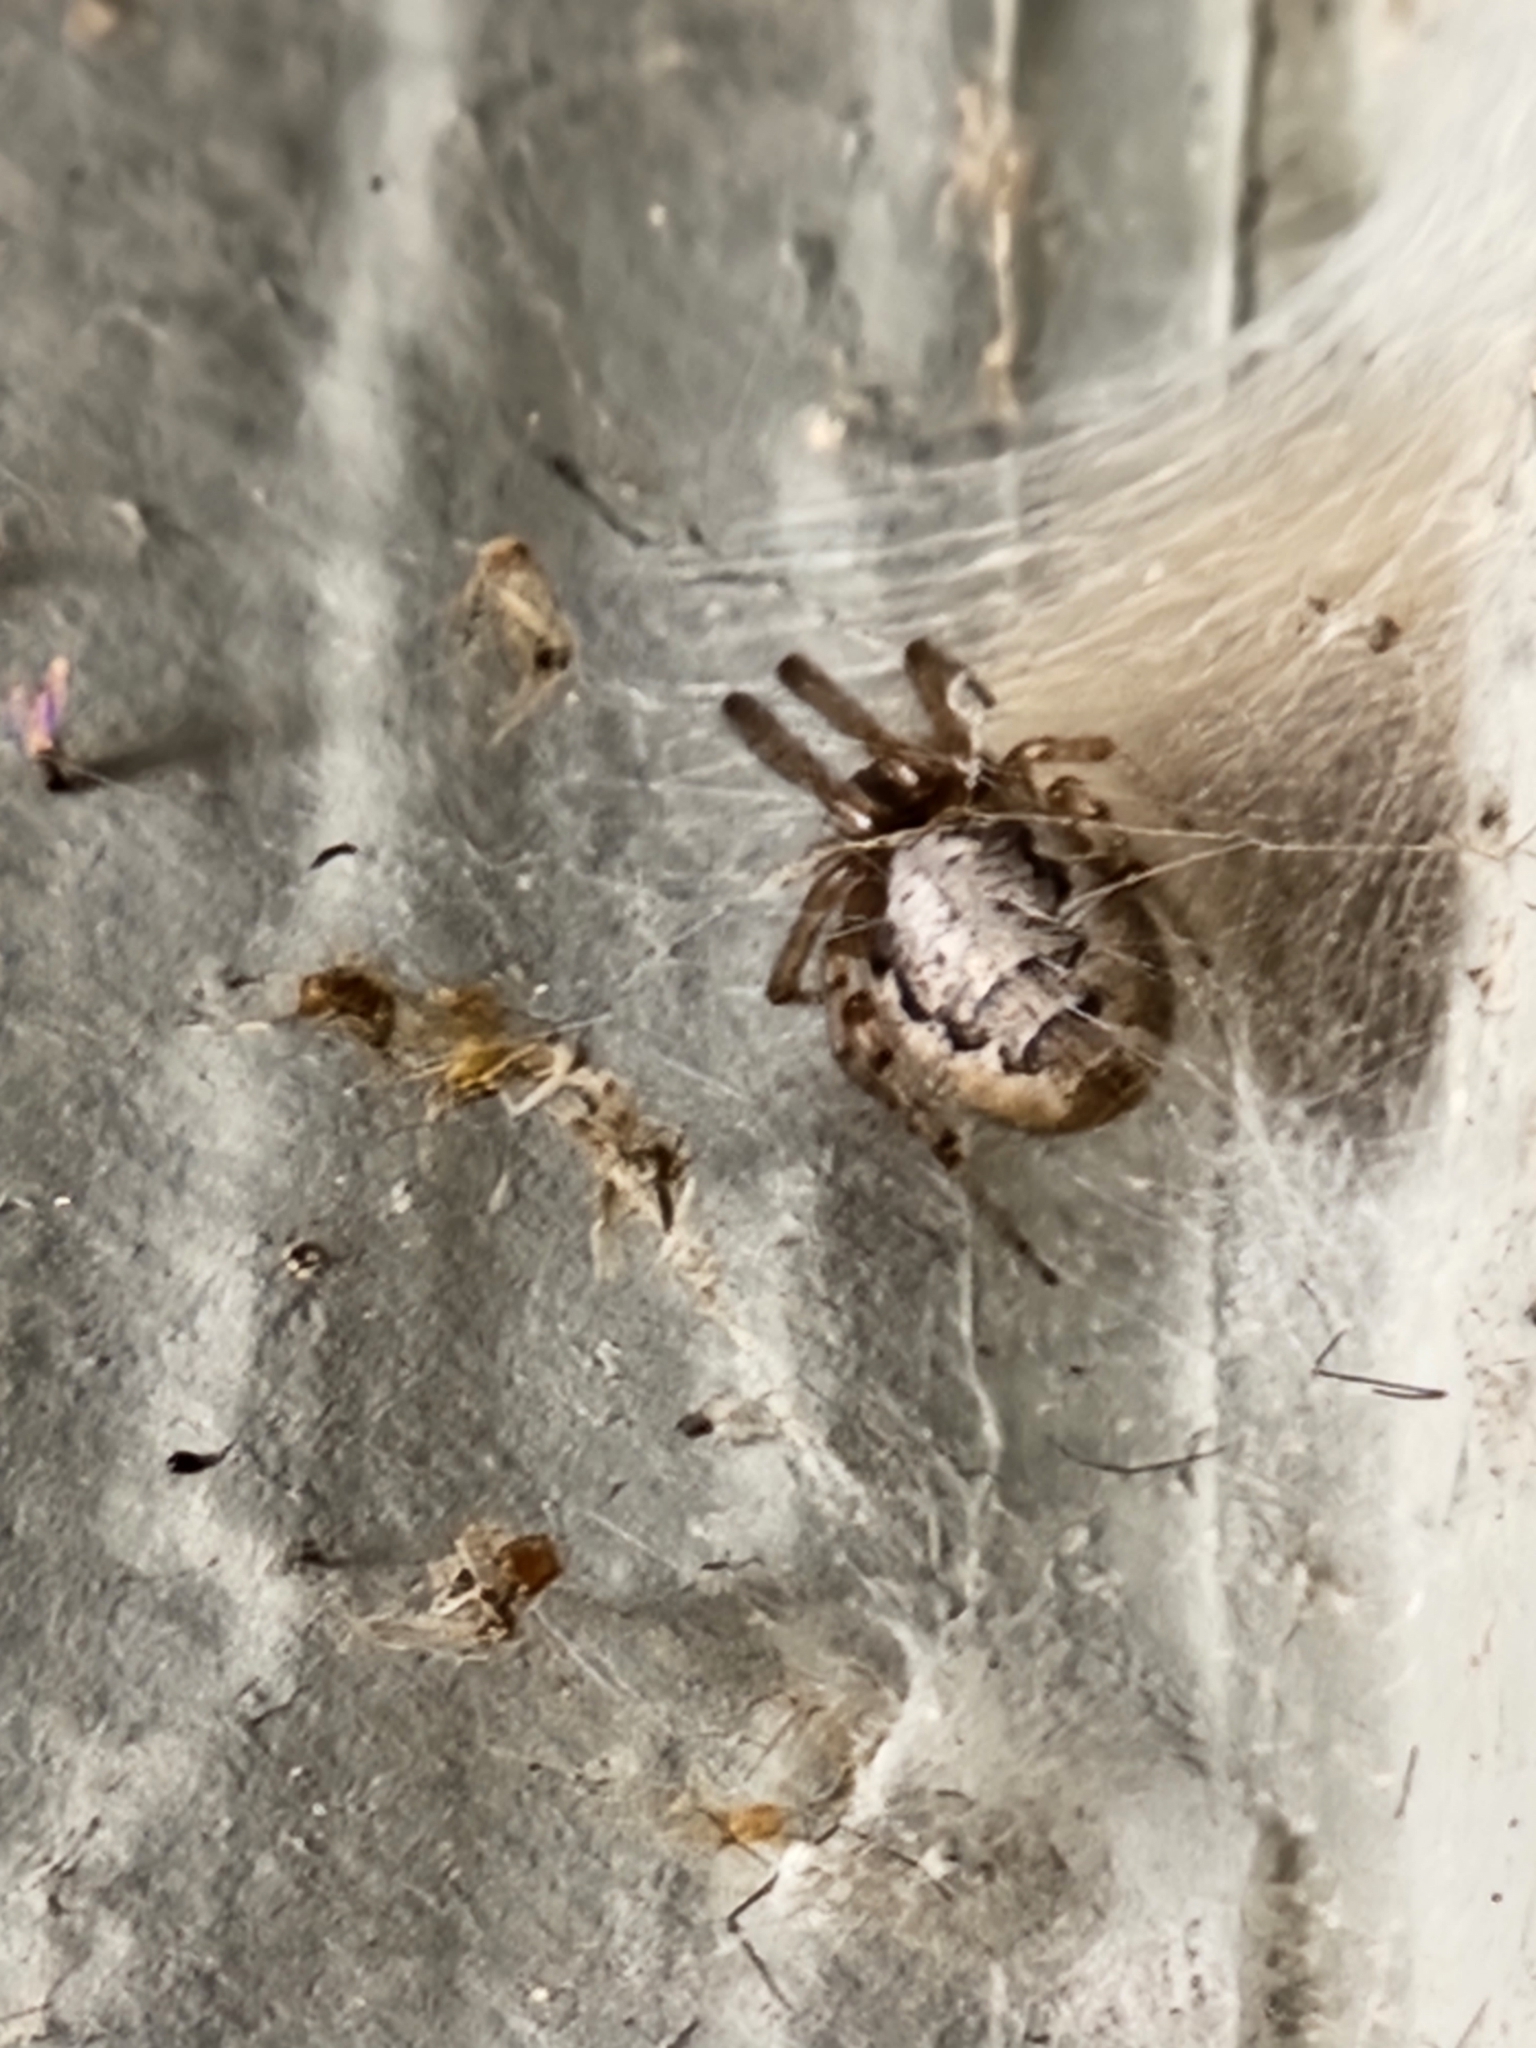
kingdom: Animalia
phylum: Arthropoda
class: Arachnida
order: Araneae
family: Araneidae
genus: Zygiella
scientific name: Zygiella x-notata
